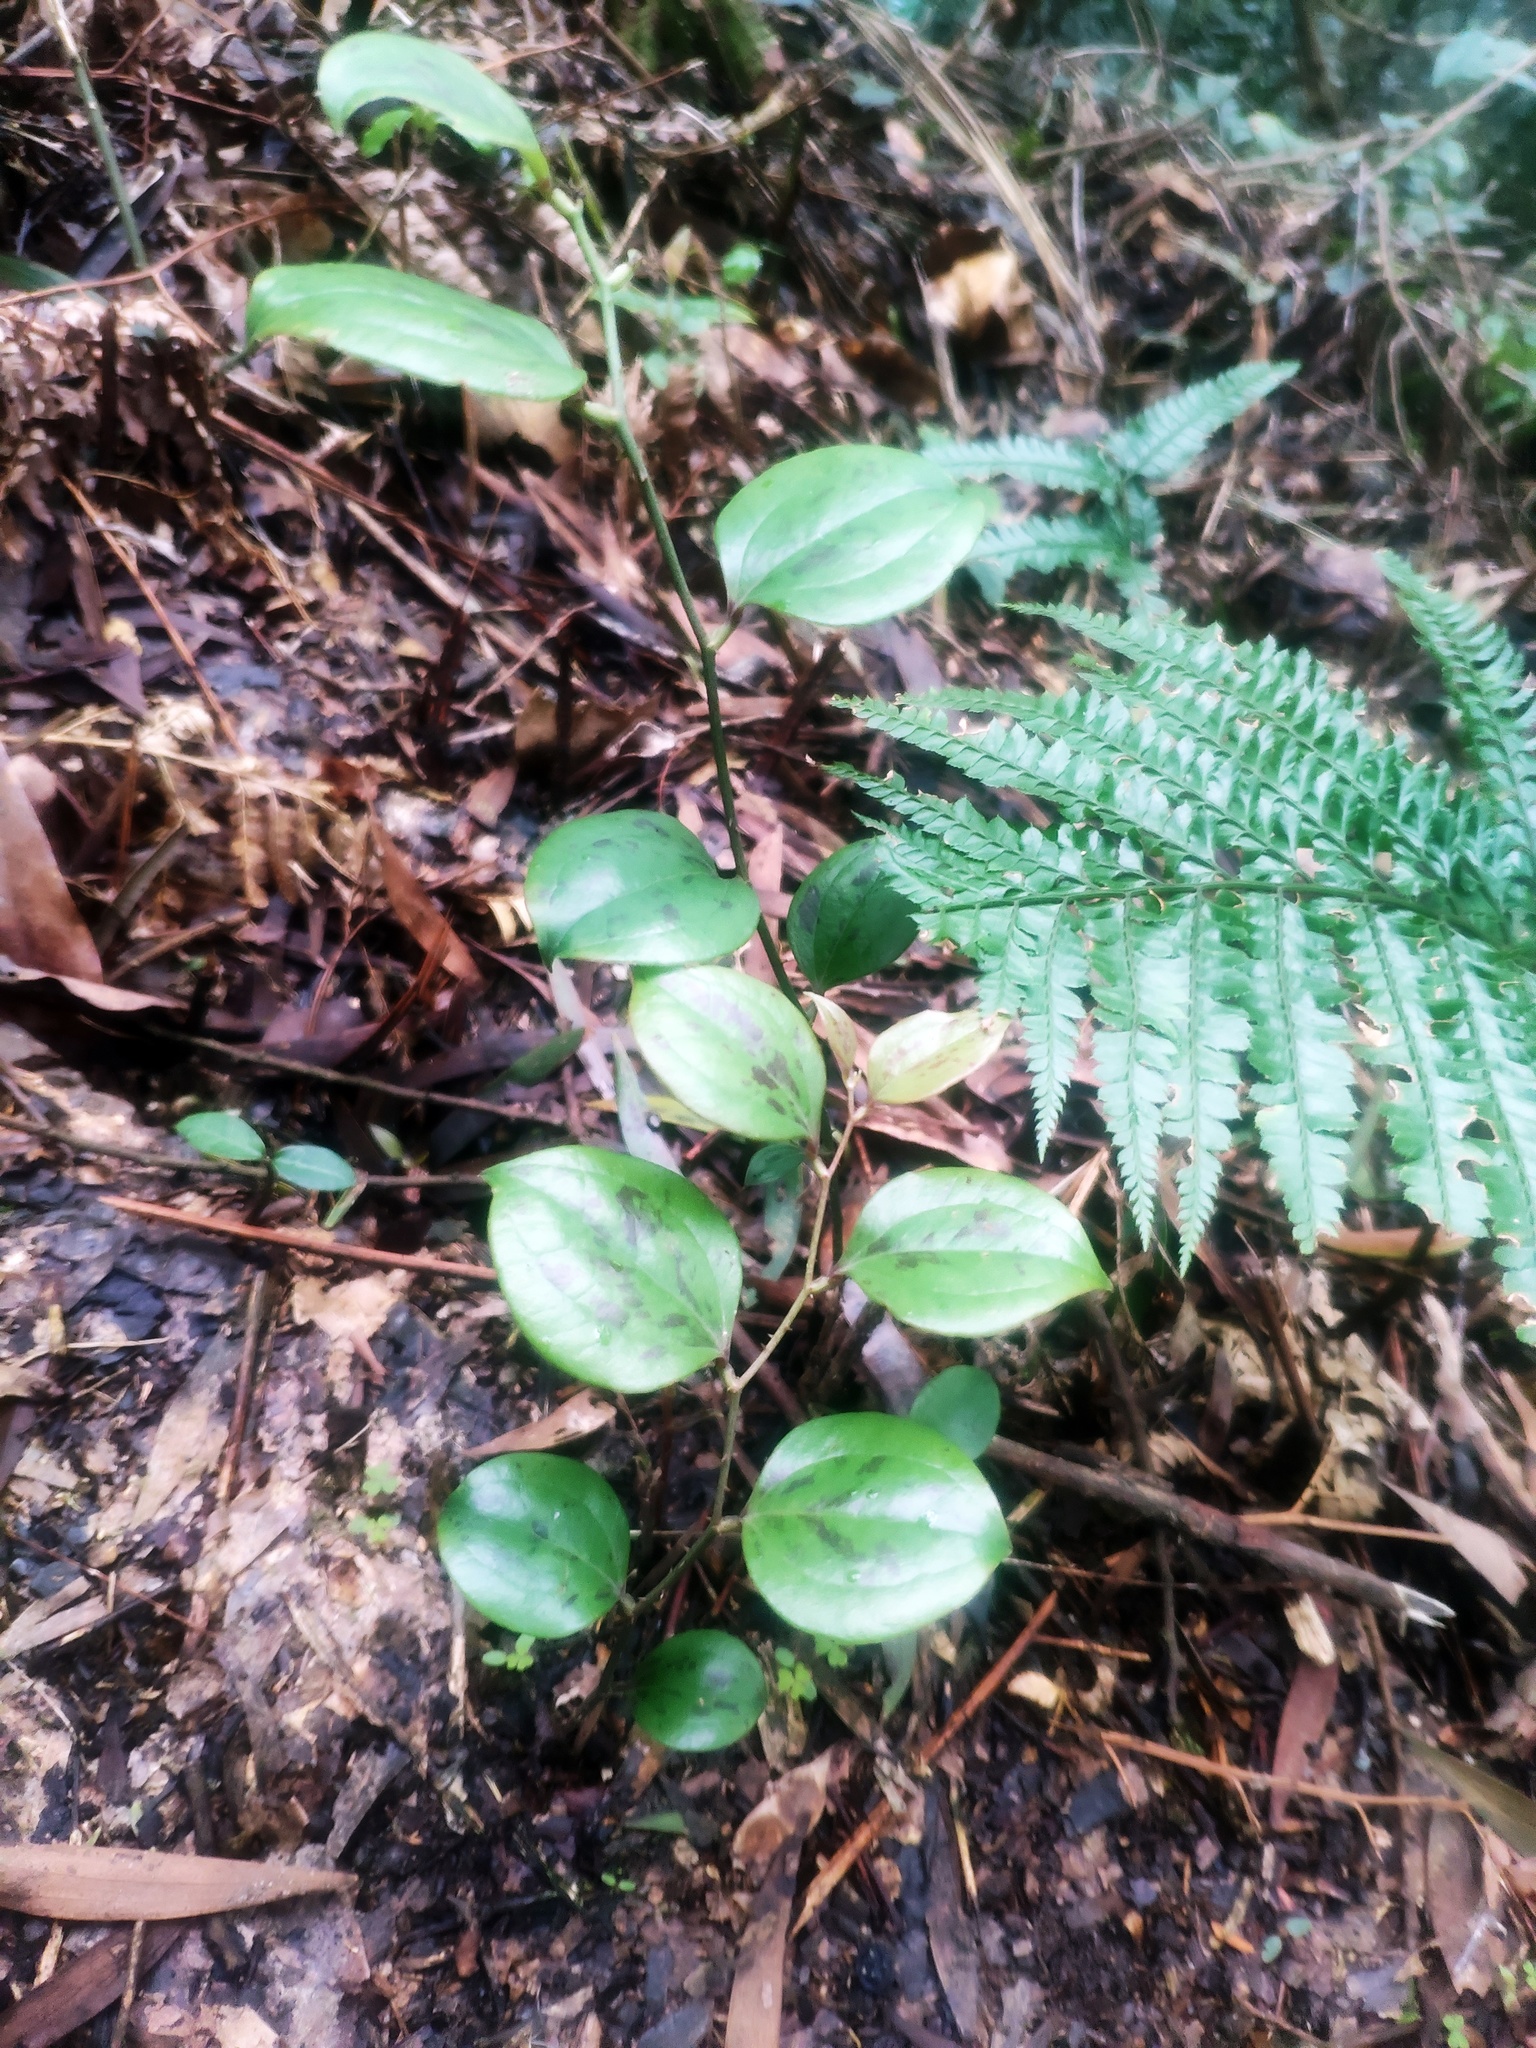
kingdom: Plantae
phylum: Tracheophyta
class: Liliopsida
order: Liliales
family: Smilacaceae
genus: Smilax
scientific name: Smilax china
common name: Chinaroot
